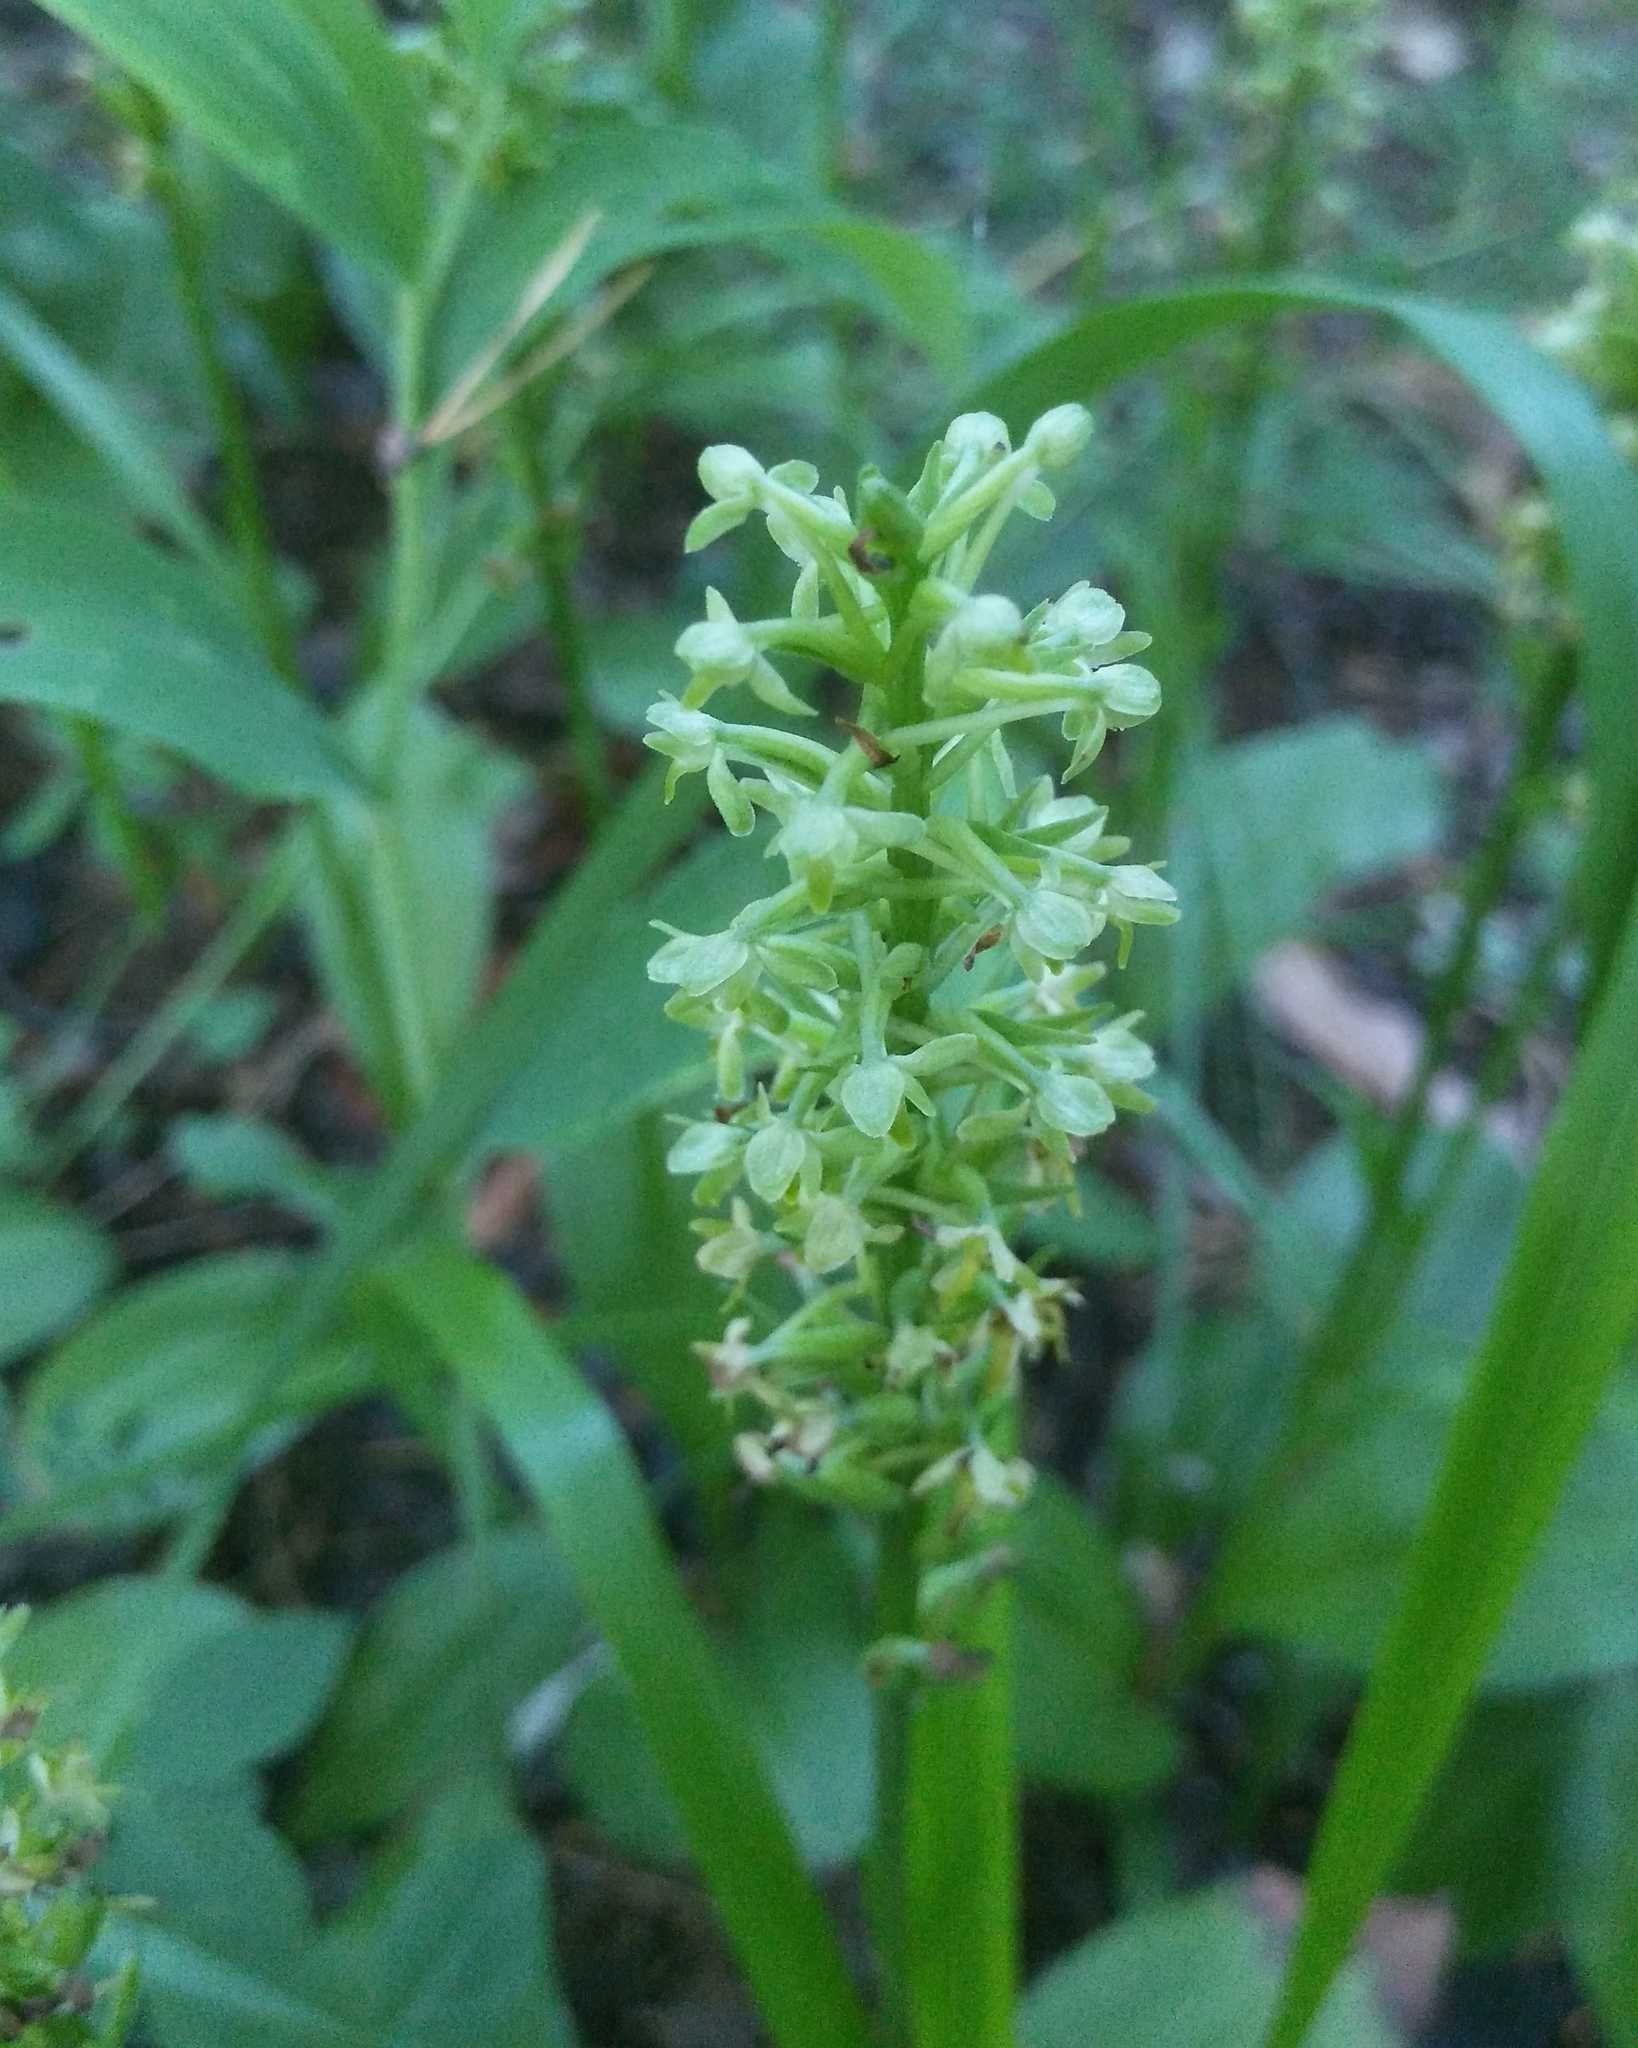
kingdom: Plantae
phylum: Tracheophyta
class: Liliopsida
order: Asparagales
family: Orchidaceae
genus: Platanthera
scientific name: Platanthera fuscescens
